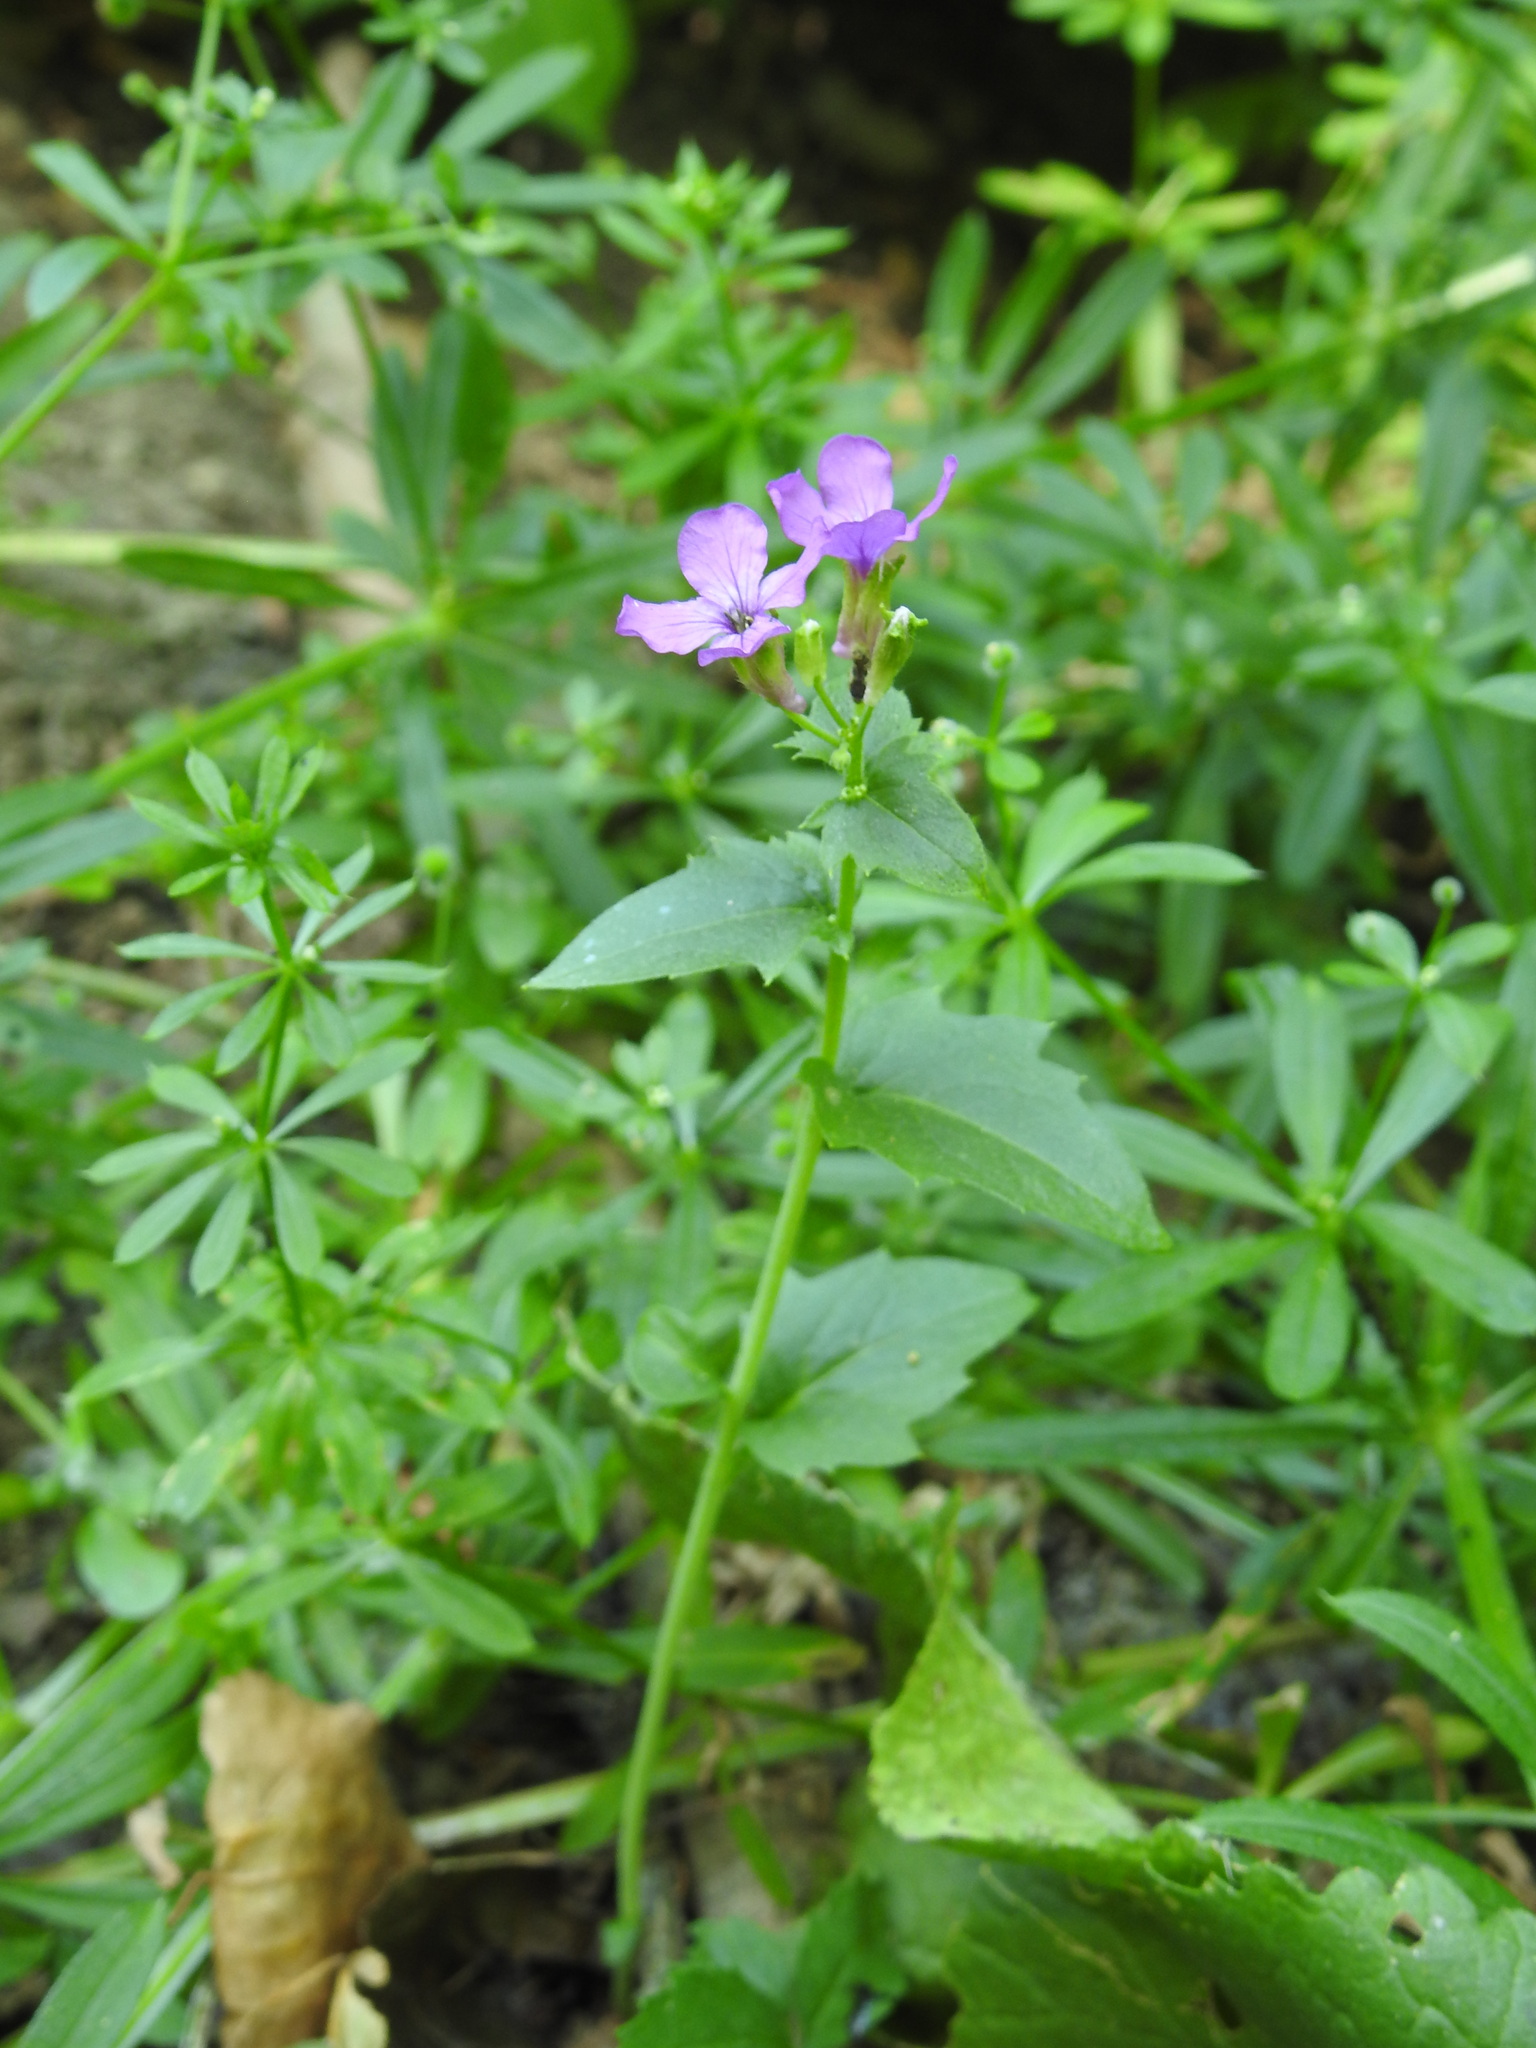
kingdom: Plantae
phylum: Tracheophyta
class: Magnoliopsida
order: Brassicales
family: Brassicaceae
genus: Lunaria
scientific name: Lunaria annua
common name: Honesty
